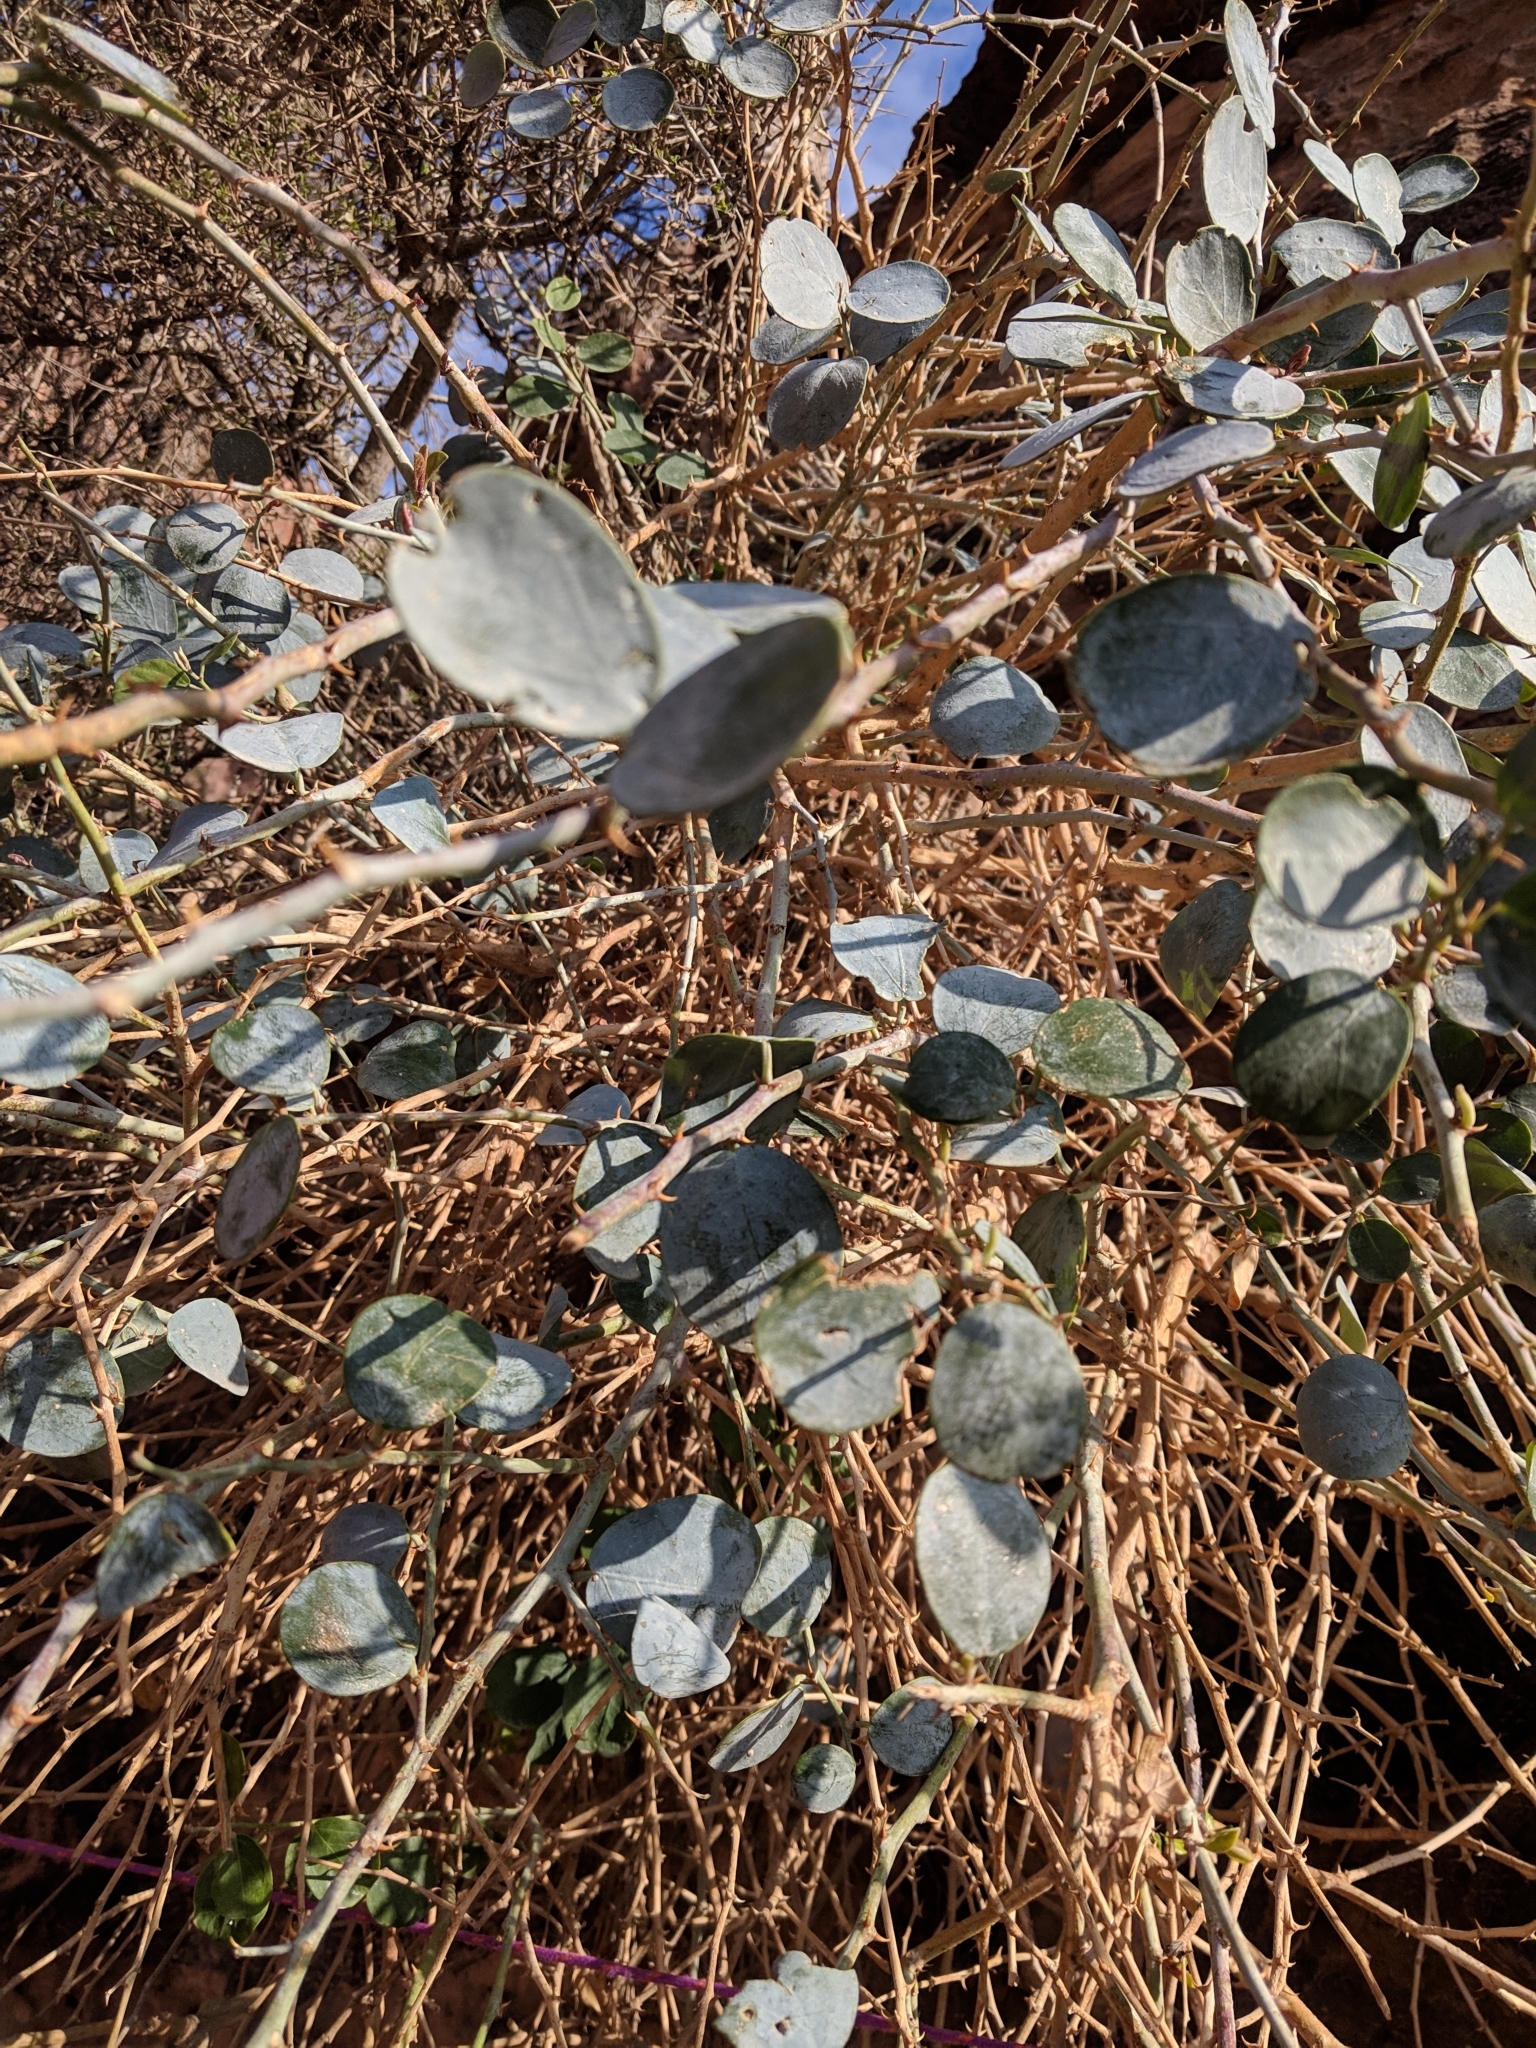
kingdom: Plantae
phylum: Tracheophyta
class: Magnoliopsida
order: Brassicales
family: Capparaceae
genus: Capparis
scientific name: Capparis spinosa
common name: Caper
